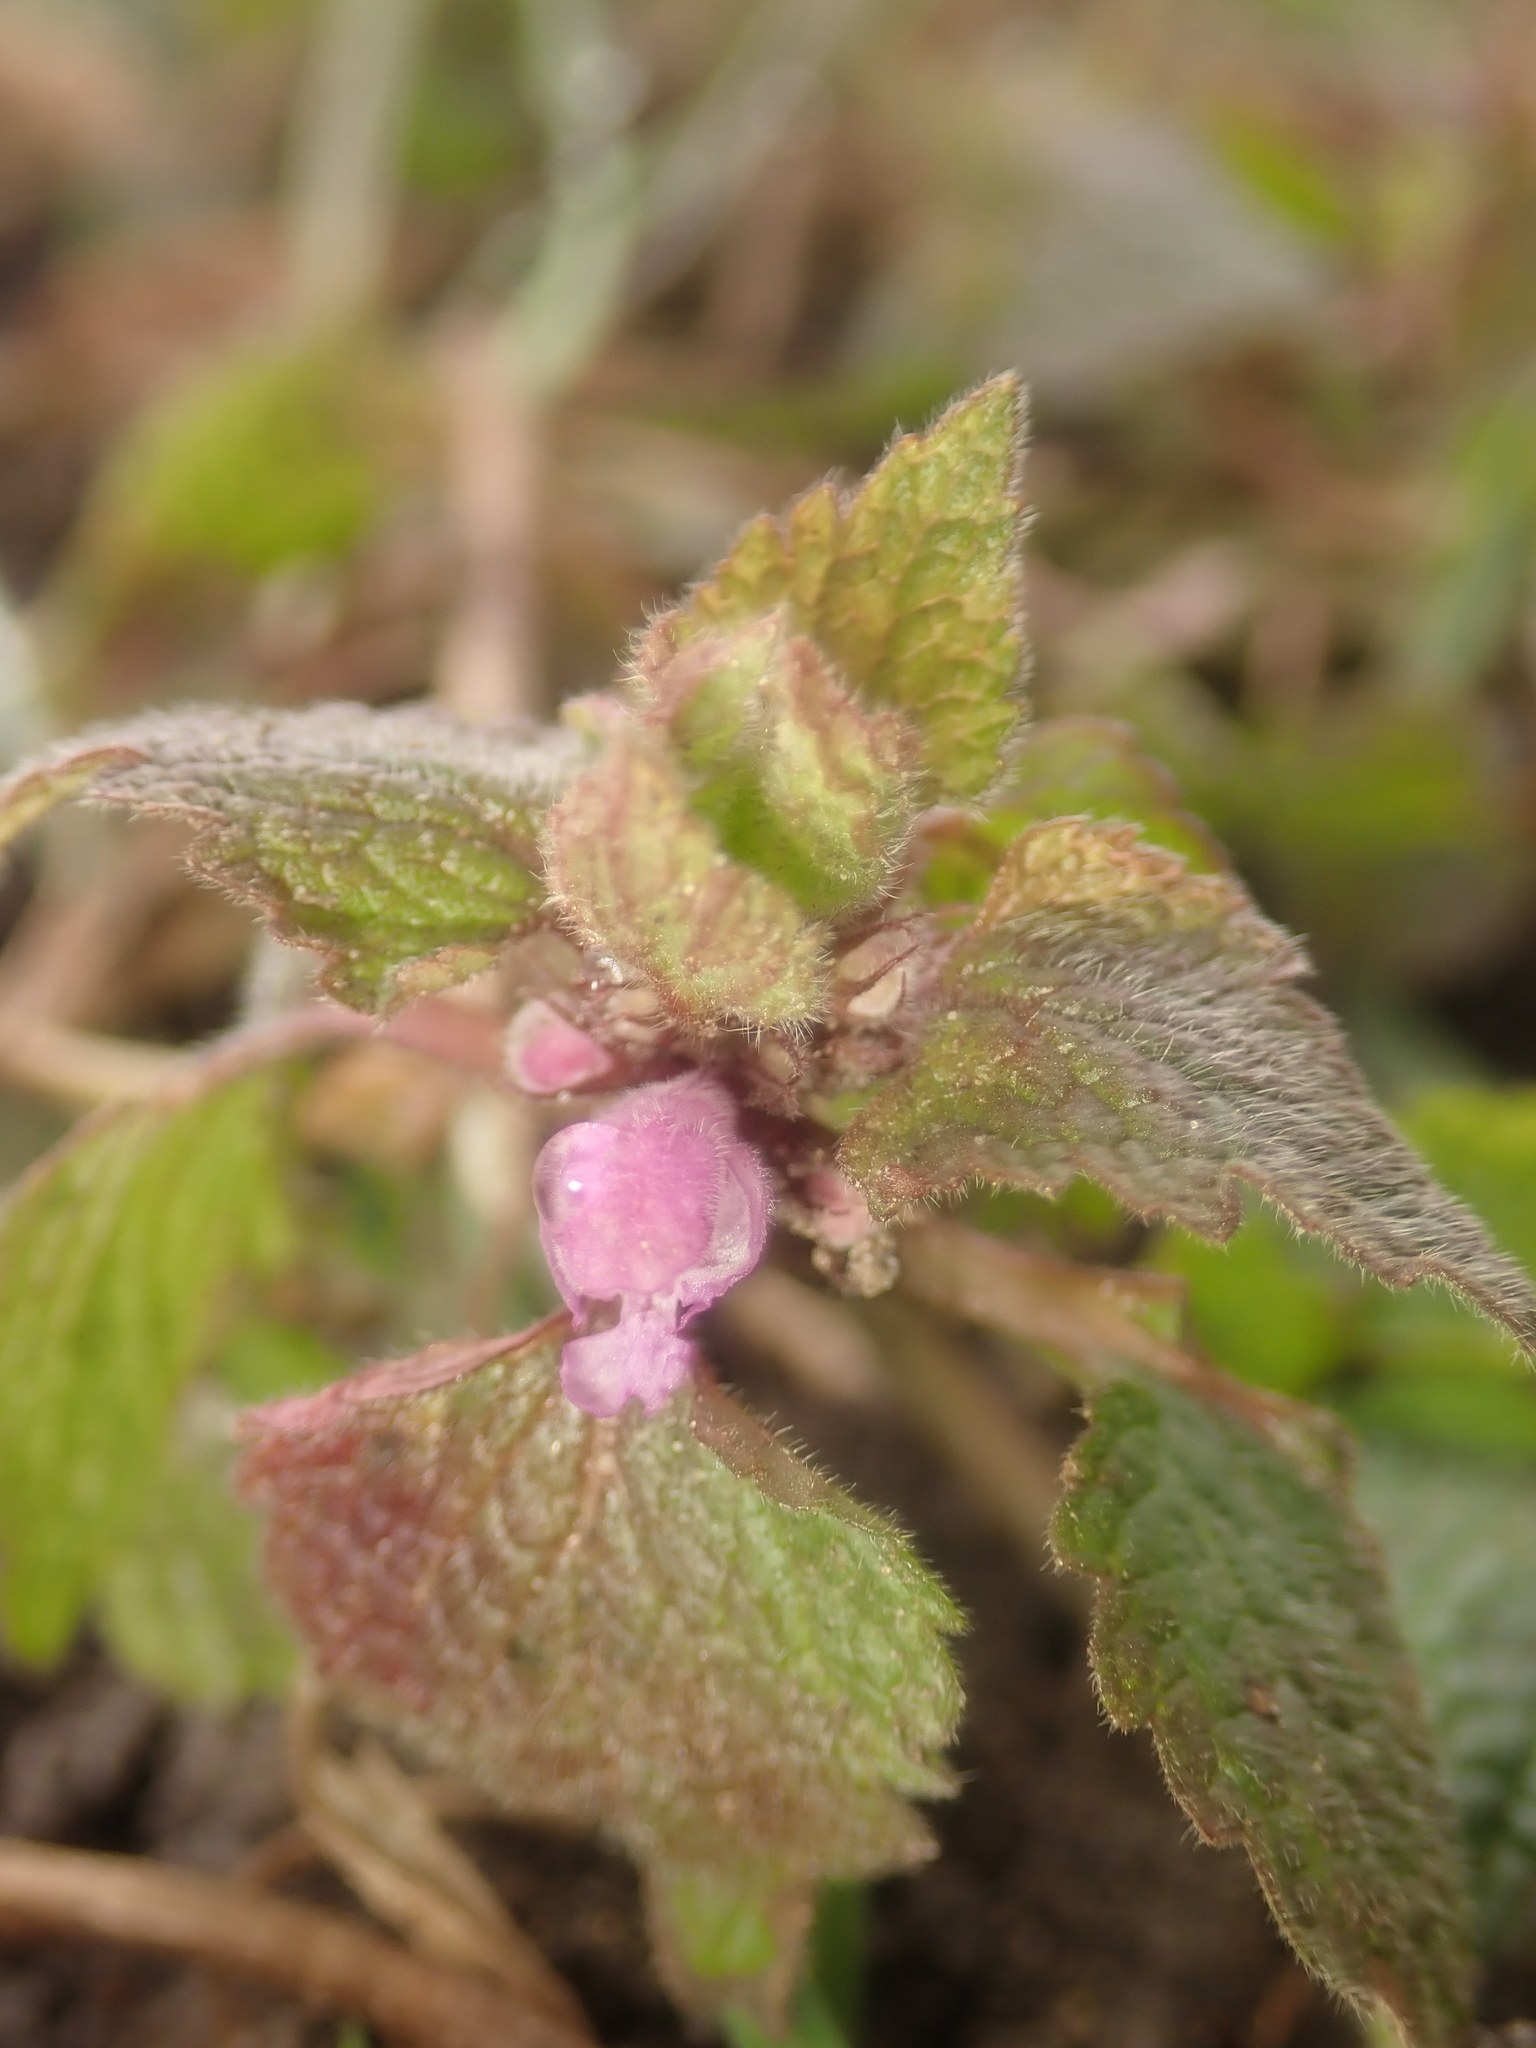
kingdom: Plantae
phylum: Tracheophyta
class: Magnoliopsida
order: Lamiales
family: Lamiaceae
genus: Lamium
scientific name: Lamium purpureum
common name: Red dead-nettle
